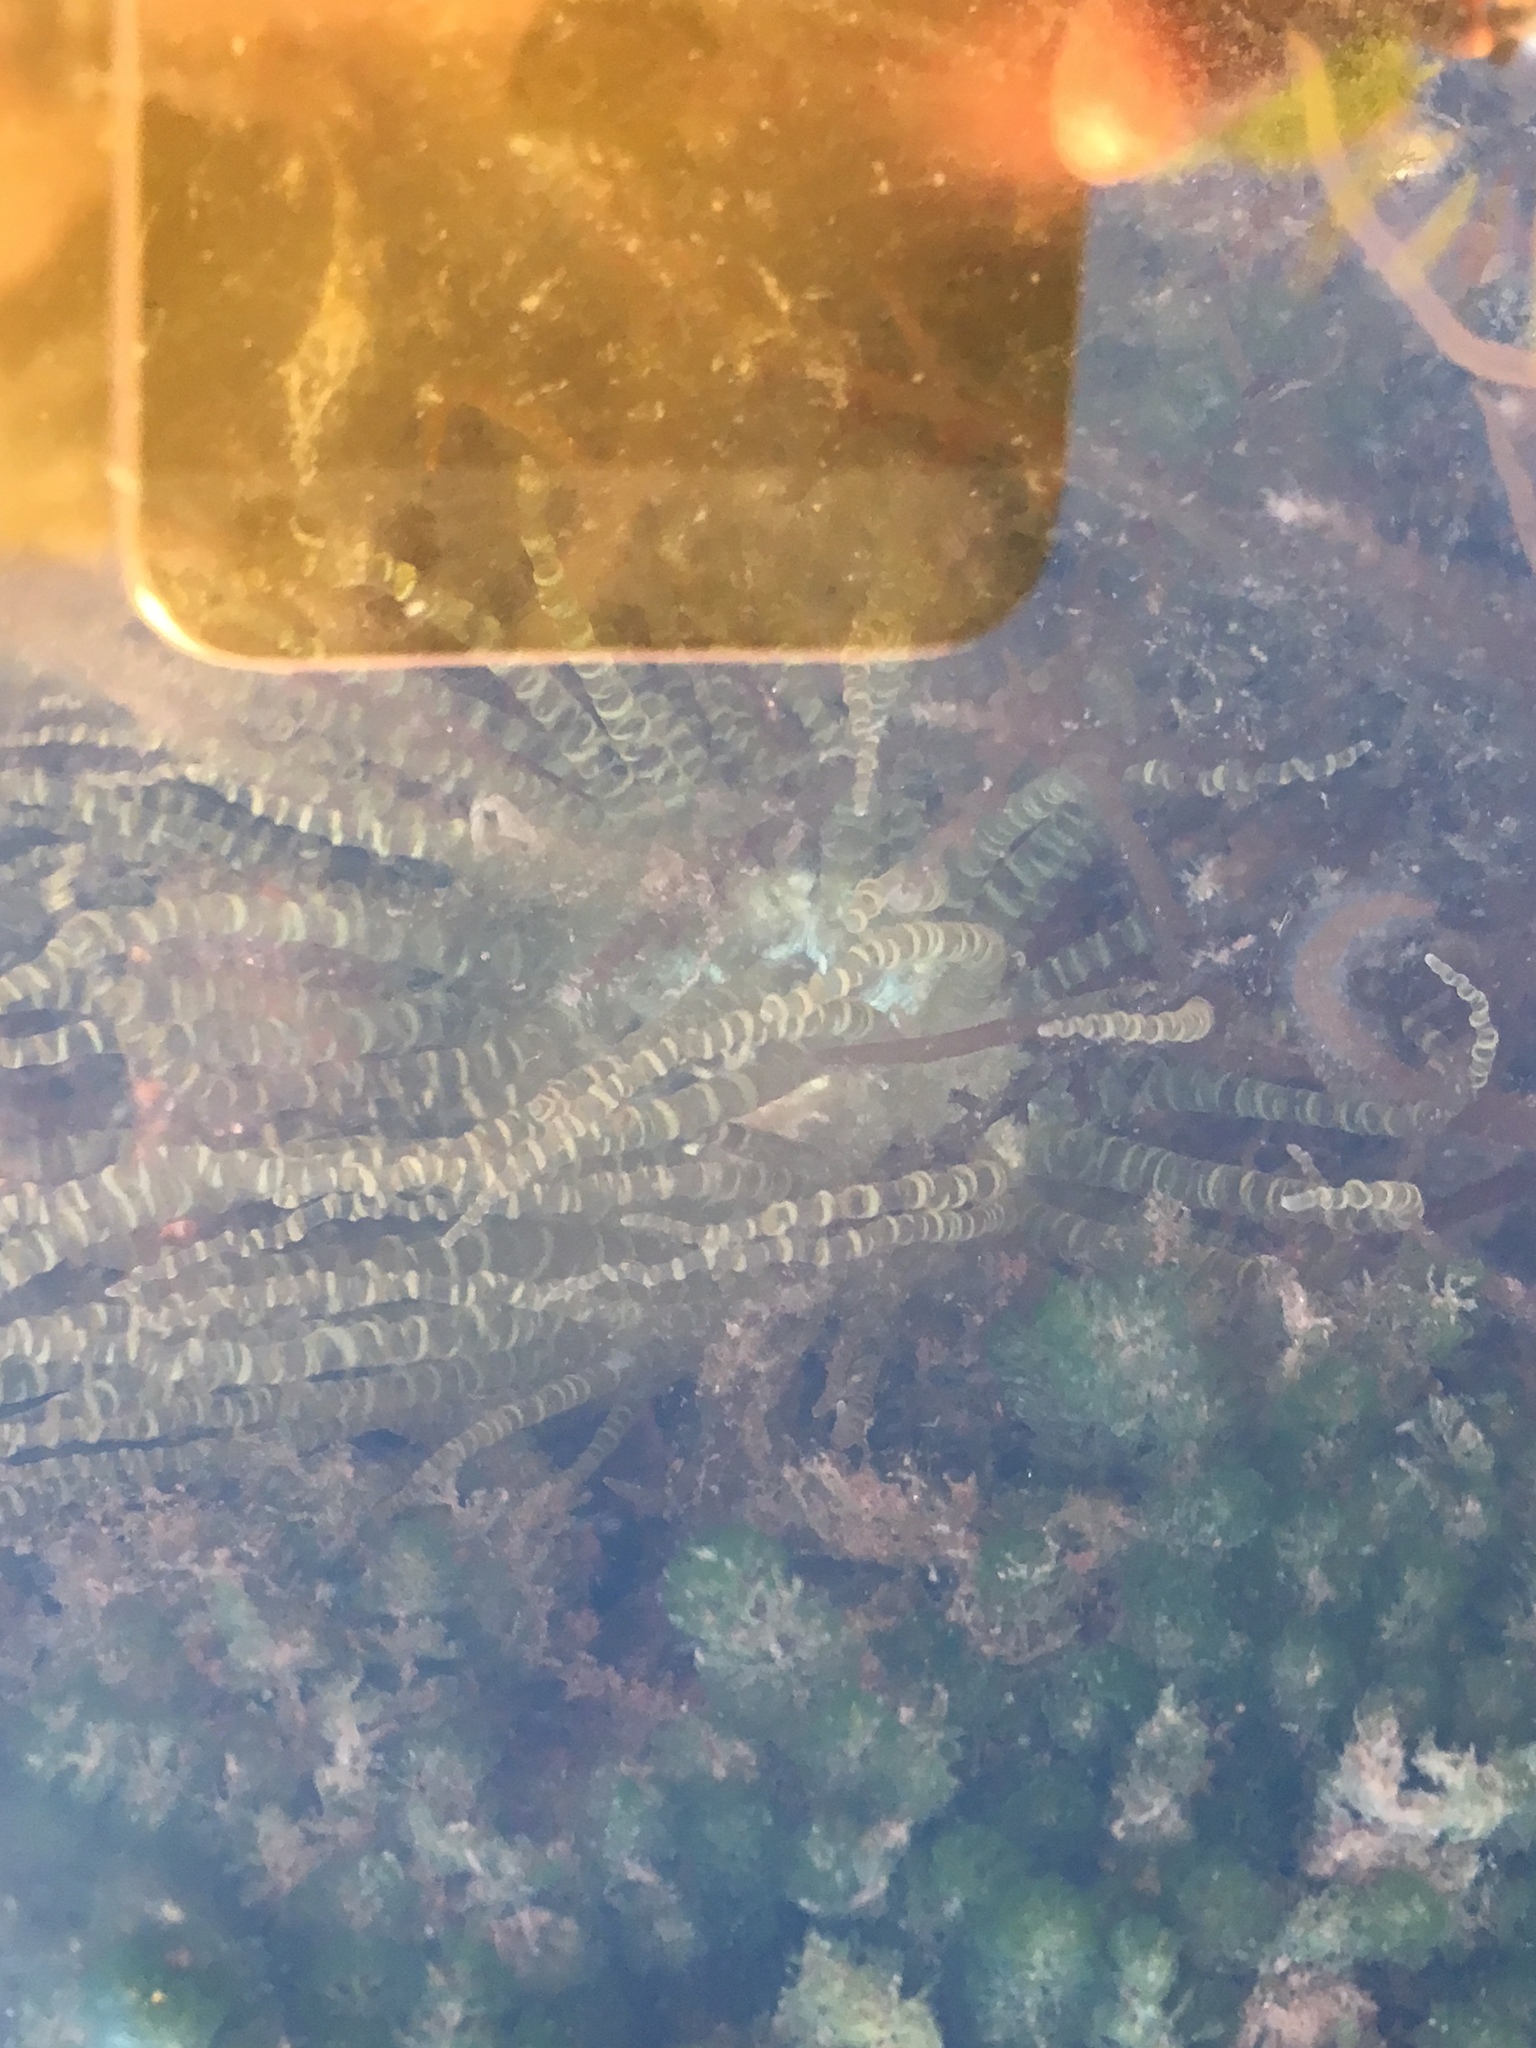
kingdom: Animalia
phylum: Cnidaria
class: Anthozoa
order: Actiniaria
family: Aiptasiidae
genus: Bartholomea
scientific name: Bartholomea annulata
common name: Corkscrew anemone
